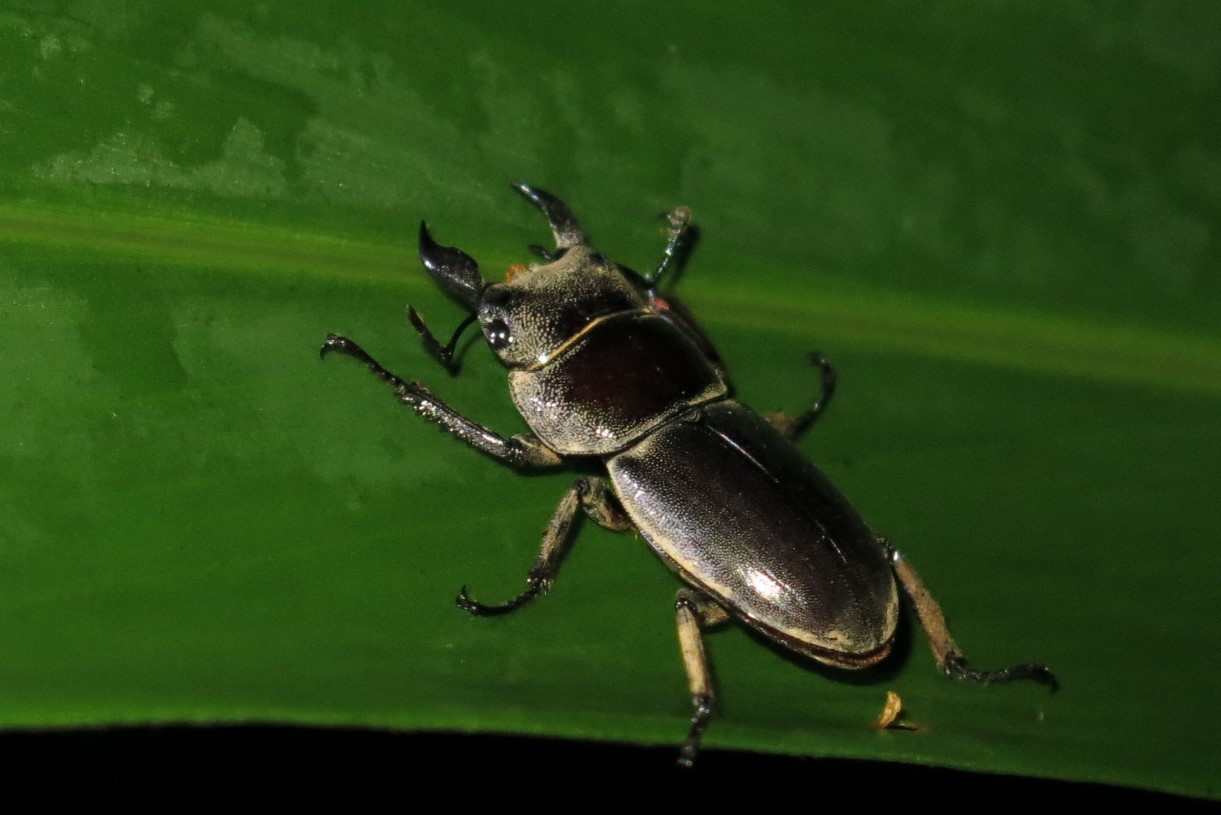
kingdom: Animalia
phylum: Arthropoda
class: Insecta
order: Coleoptera
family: Lucanidae
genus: Serrognathus
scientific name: Serrognathus titanus
